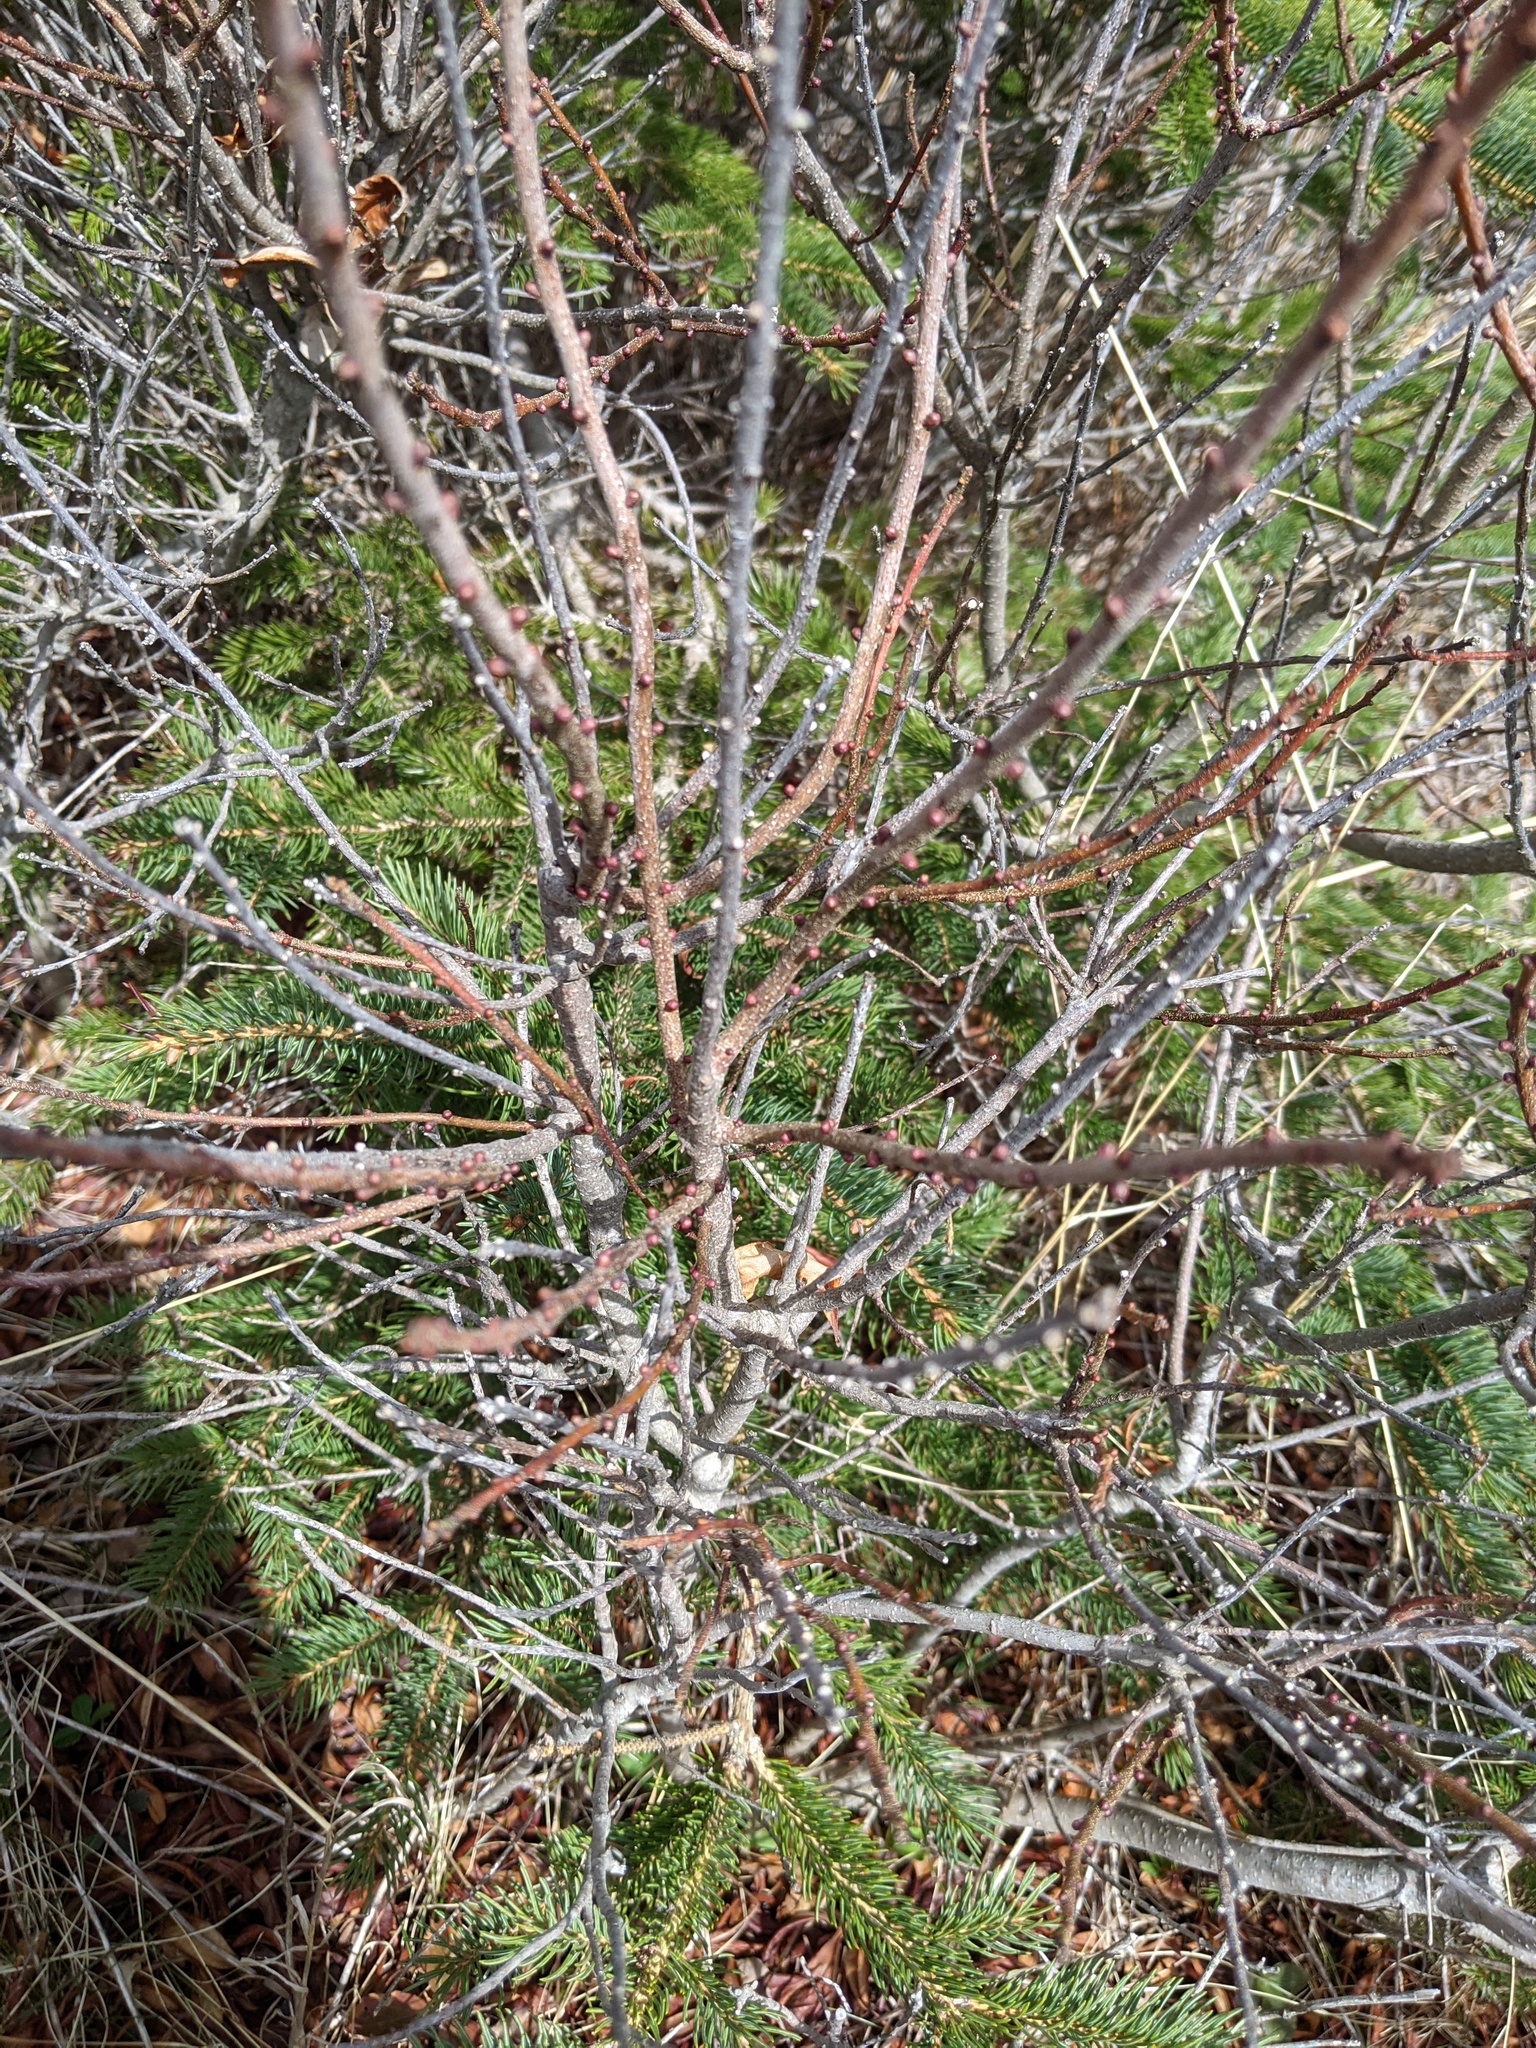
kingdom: Plantae
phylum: Tracheophyta
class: Magnoliopsida
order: Fagales
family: Myricaceae
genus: Morella
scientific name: Morella pensylvanica
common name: Northern bayberry
